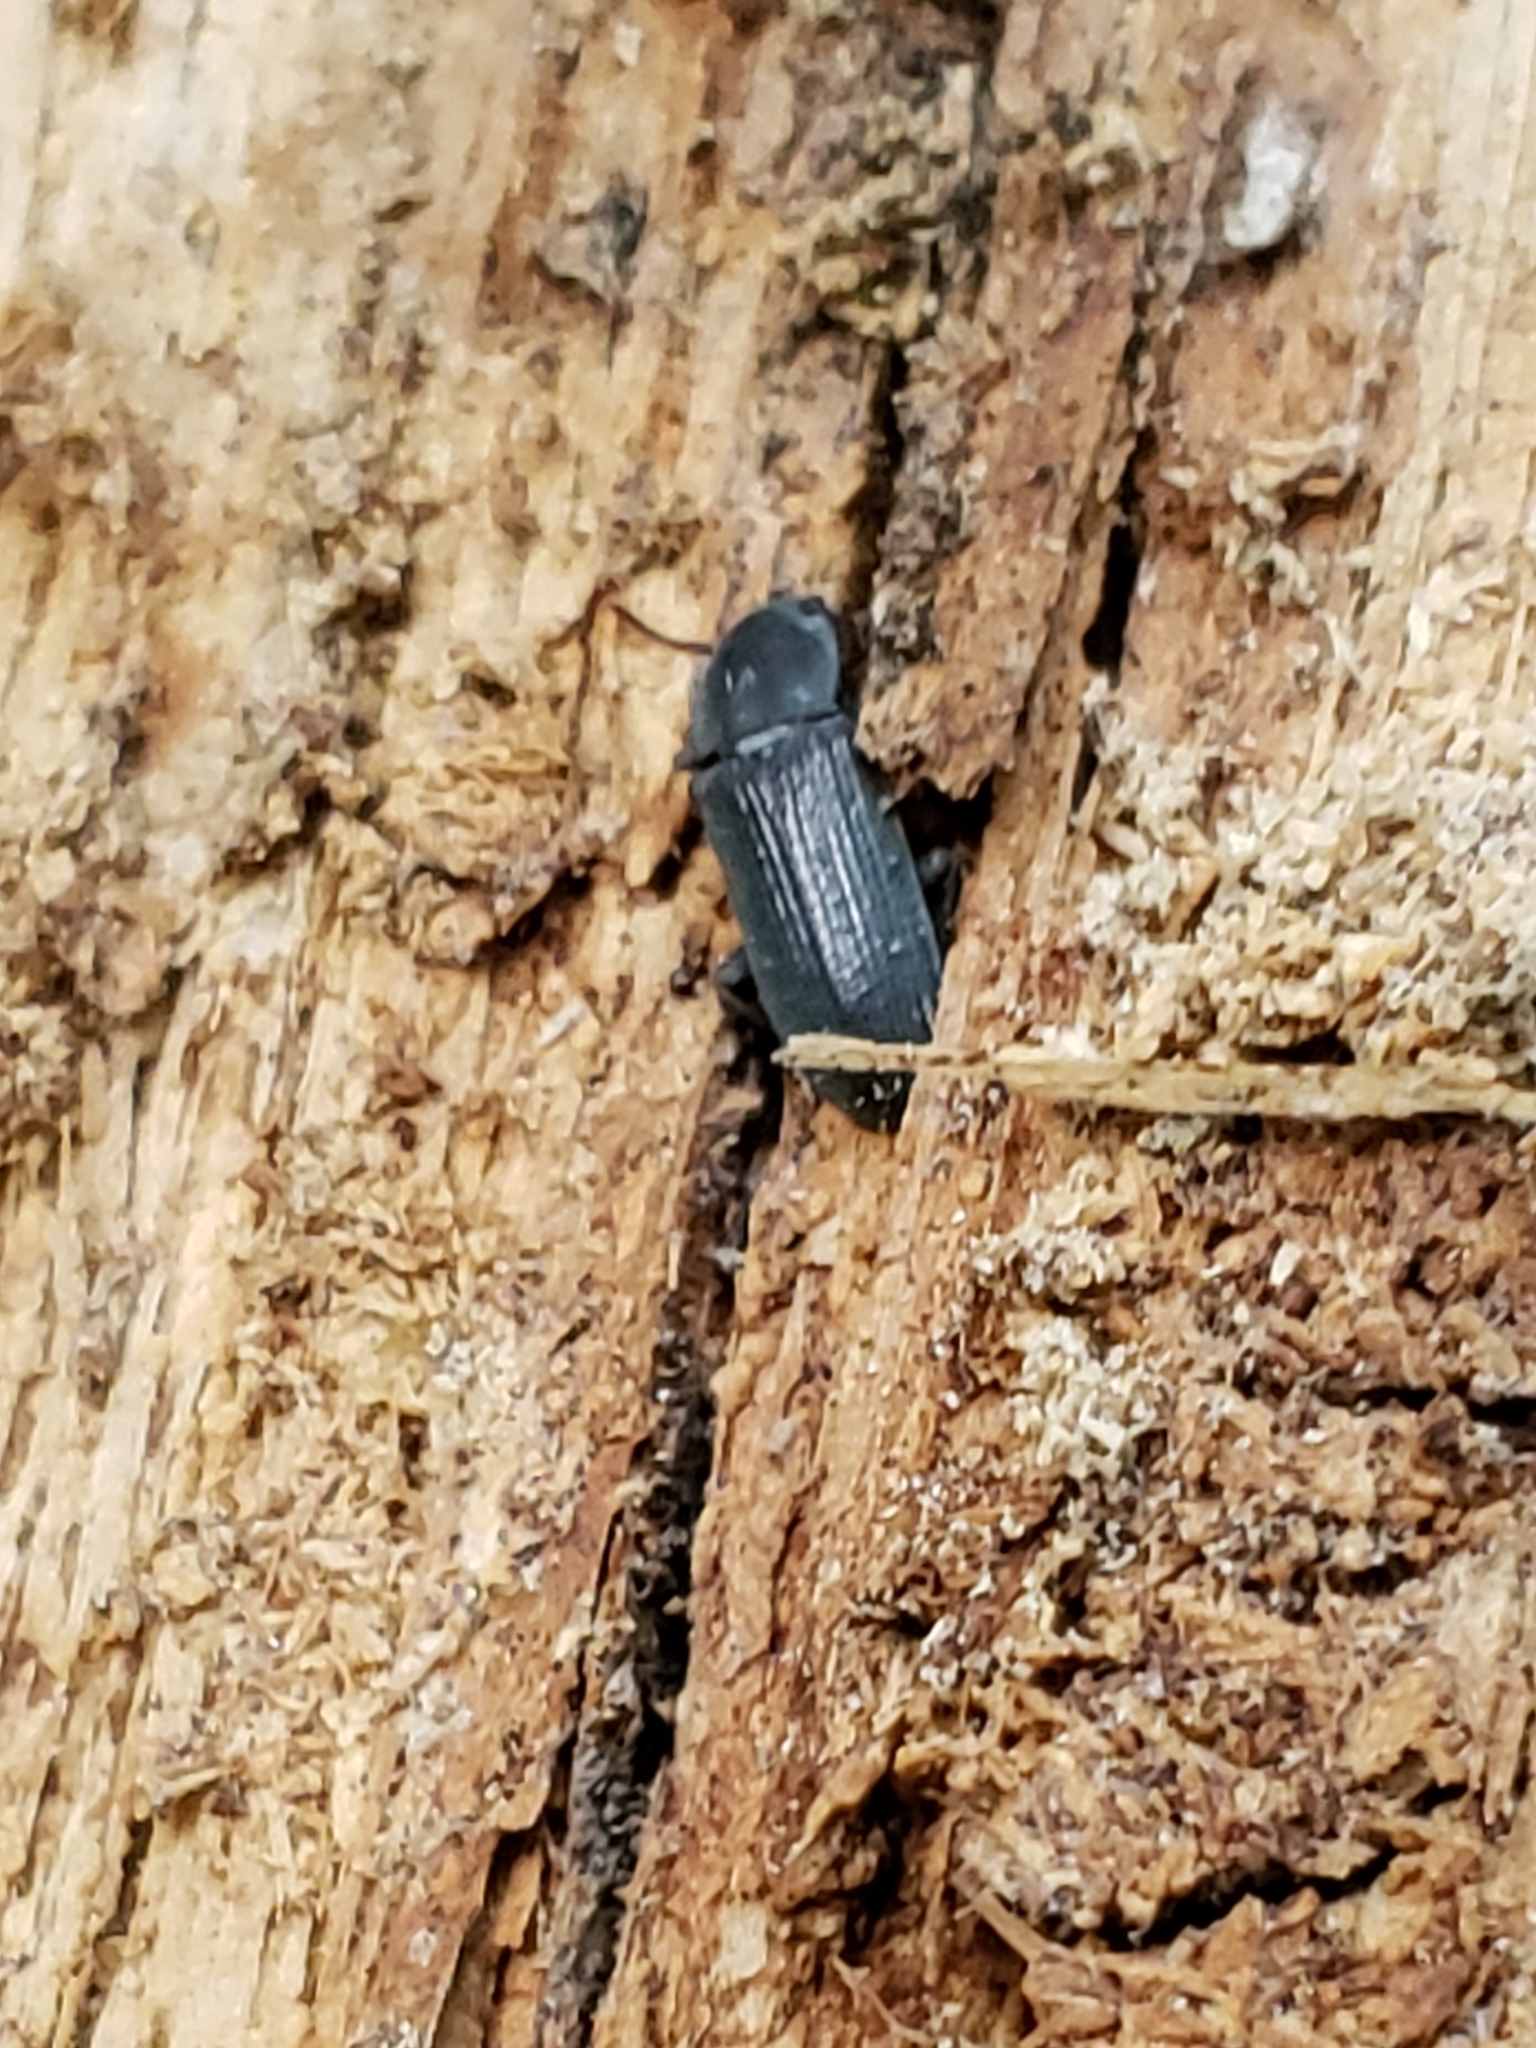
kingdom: Animalia
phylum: Arthropoda
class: Insecta
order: Coleoptera
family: Tenebrionidae
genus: Idiobates
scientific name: Idiobates castaneus
